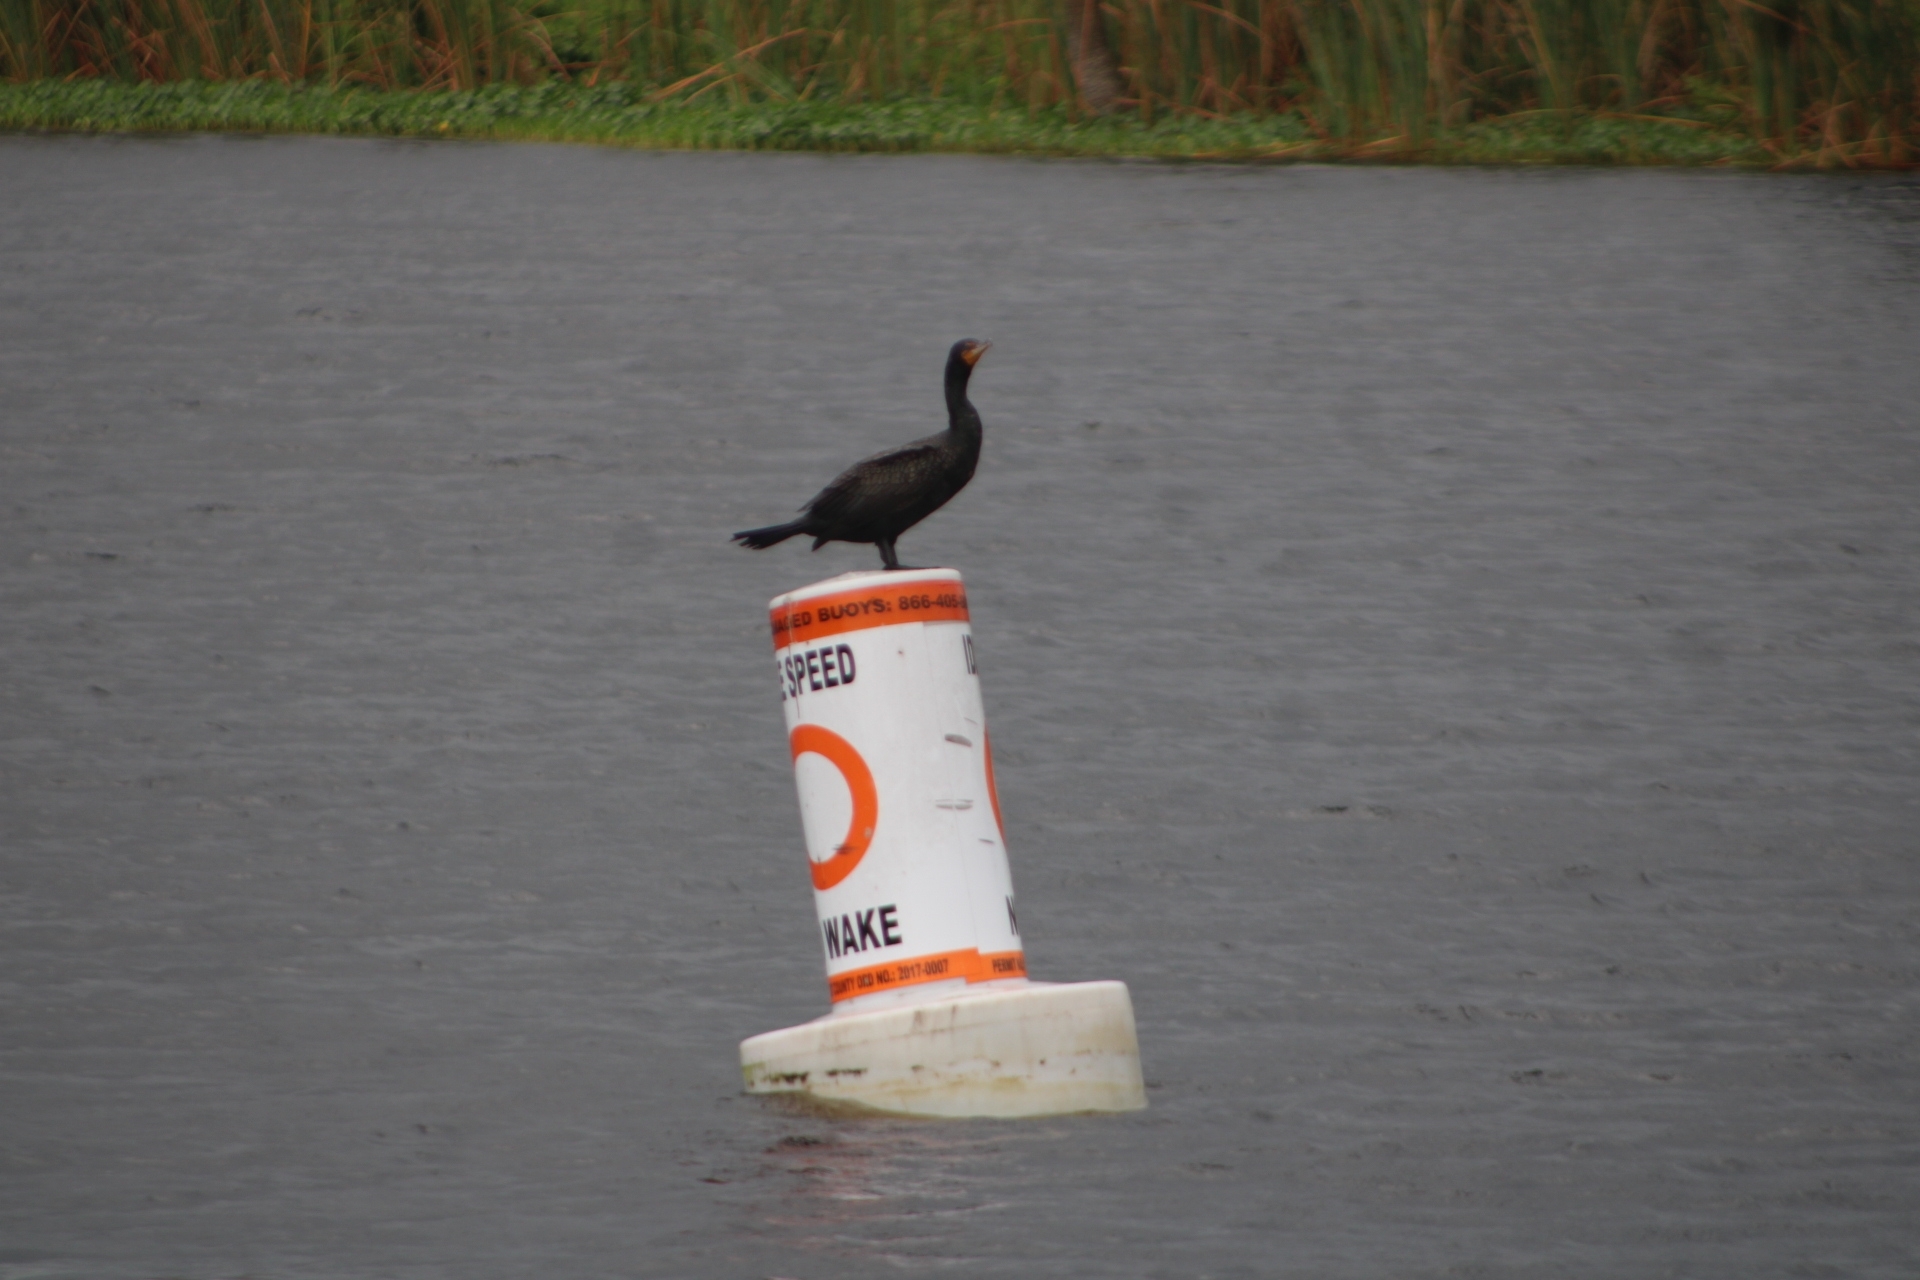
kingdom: Animalia
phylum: Chordata
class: Aves
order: Suliformes
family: Phalacrocoracidae
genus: Phalacrocorax
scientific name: Phalacrocorax auritus
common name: Double-crested cormorant
